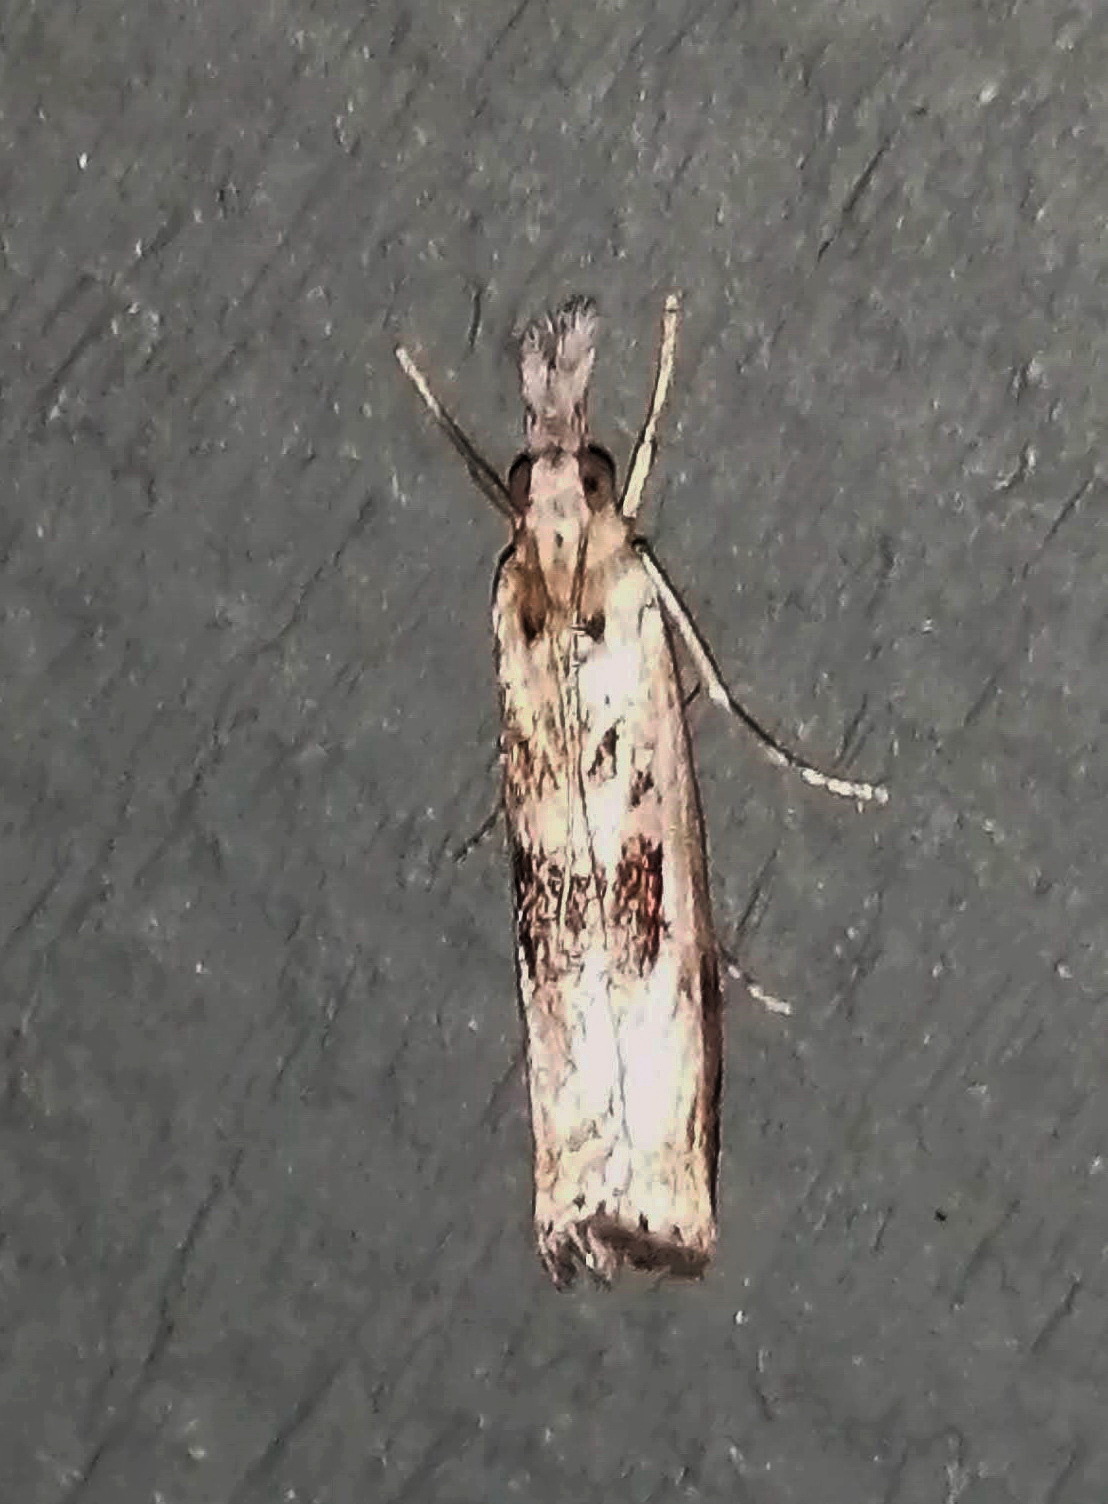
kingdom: Animalia
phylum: Arthropoda
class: Insecta
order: Lepidoptera
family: Crambidae
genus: Microcrambus
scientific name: Microcrambus immunellus
